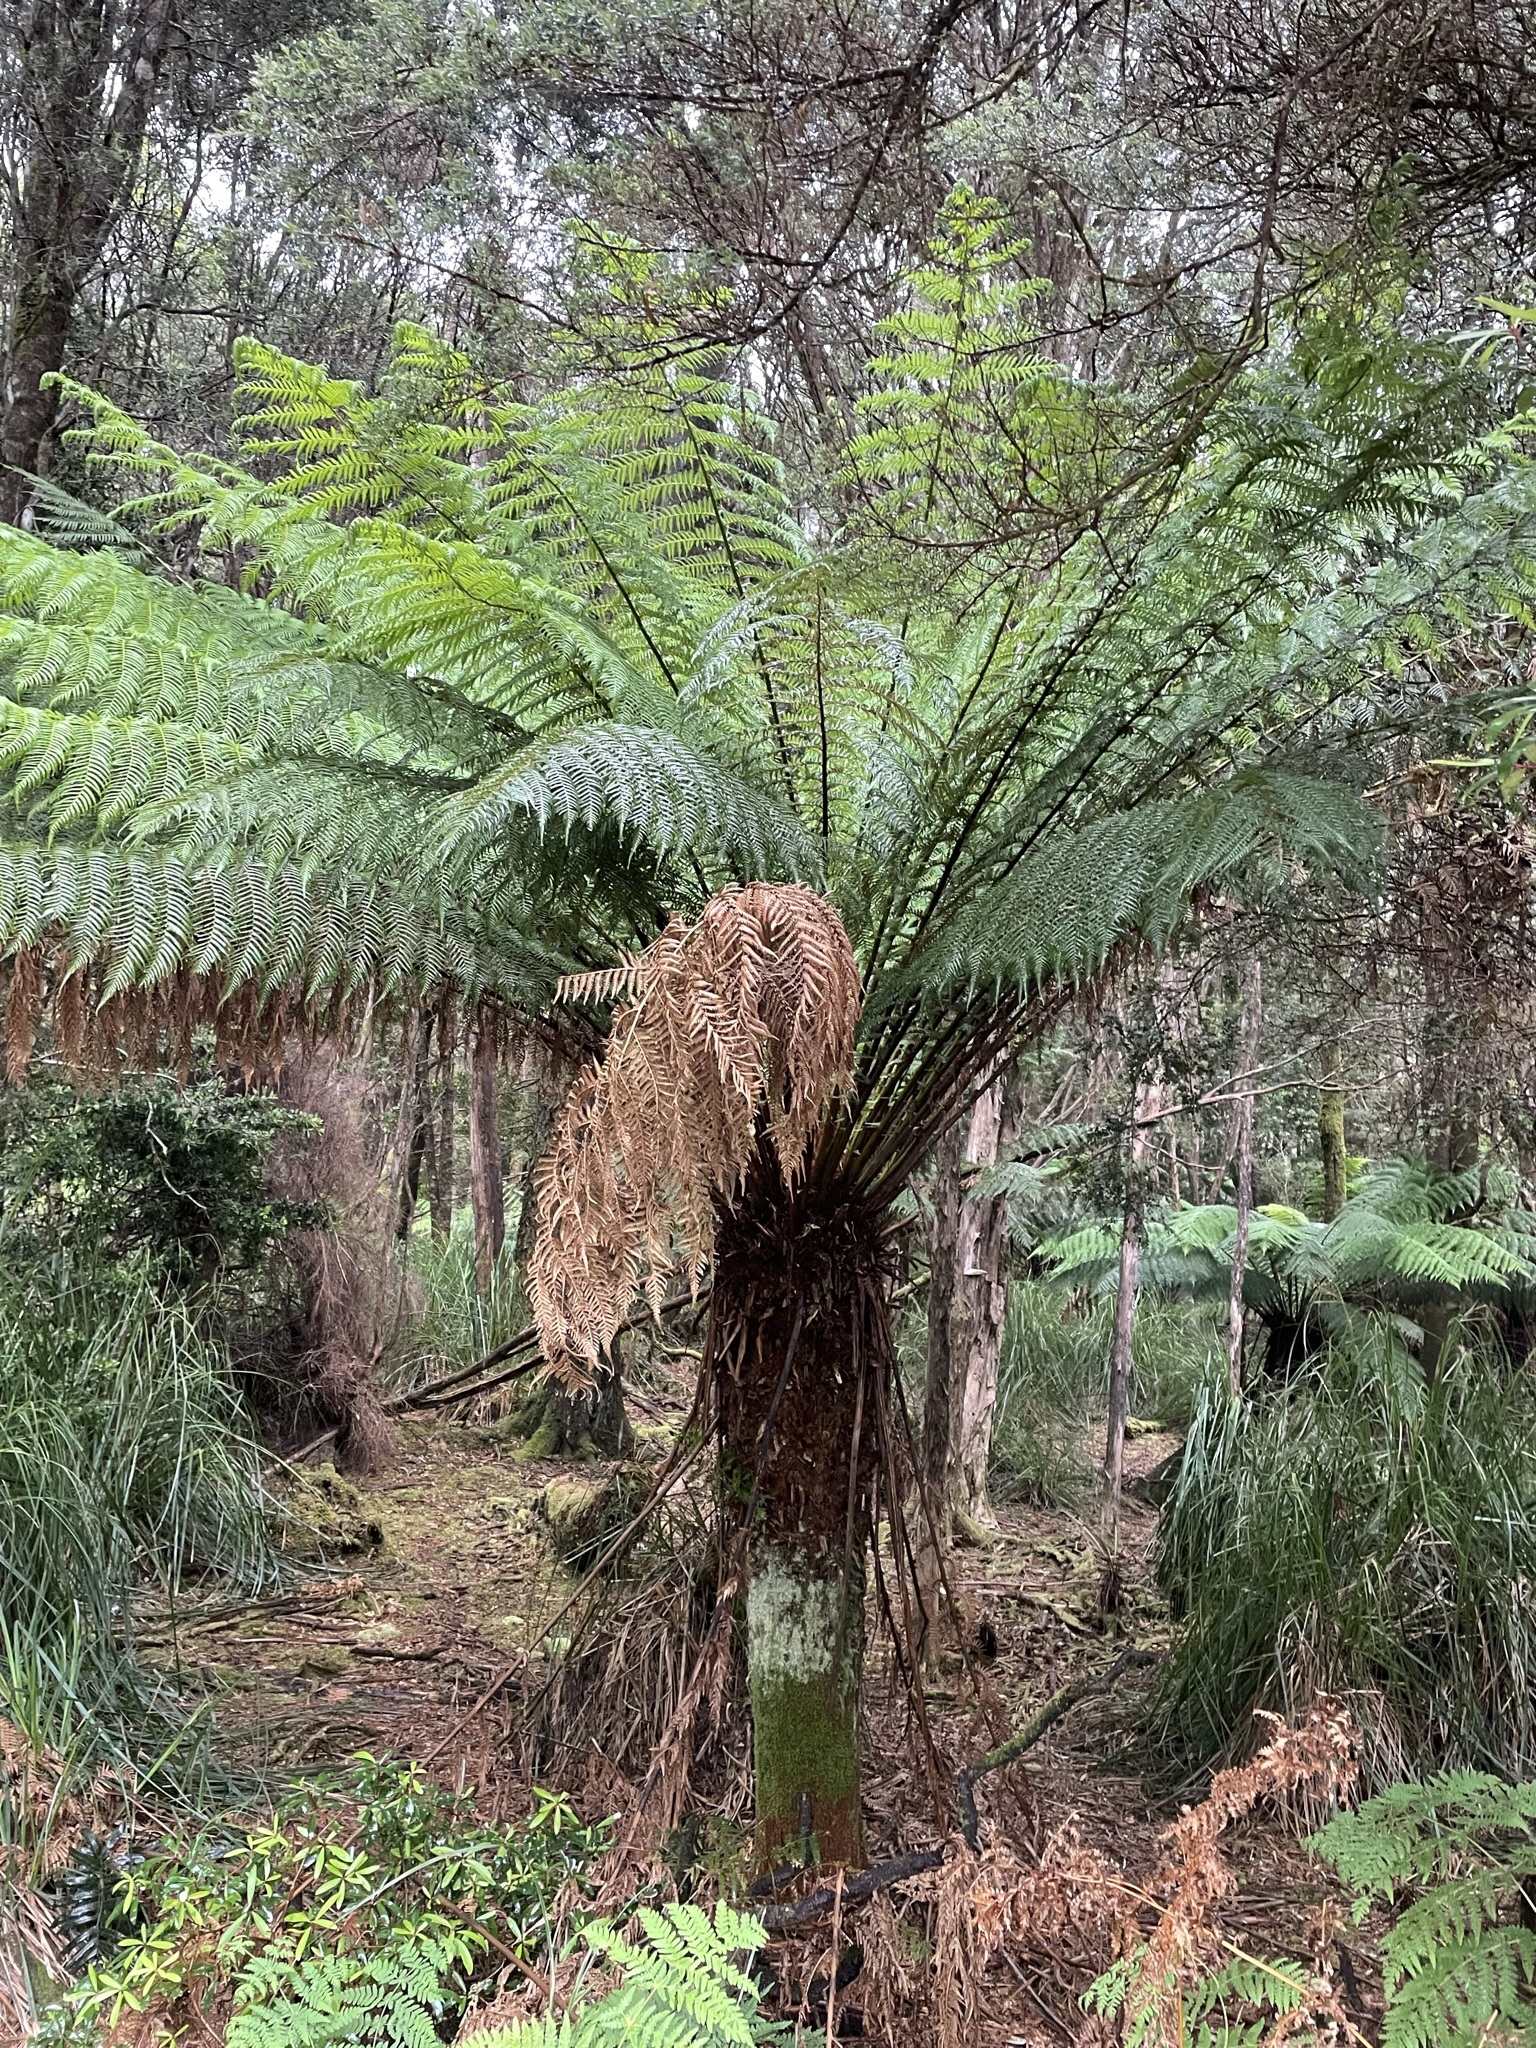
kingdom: Plantae
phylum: Tracheophyta
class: Polypodiopsida
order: Cyatheales
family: Dicksoniaceae
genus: Dicksonia
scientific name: Dicksonia antarctica
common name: Australian treefern
